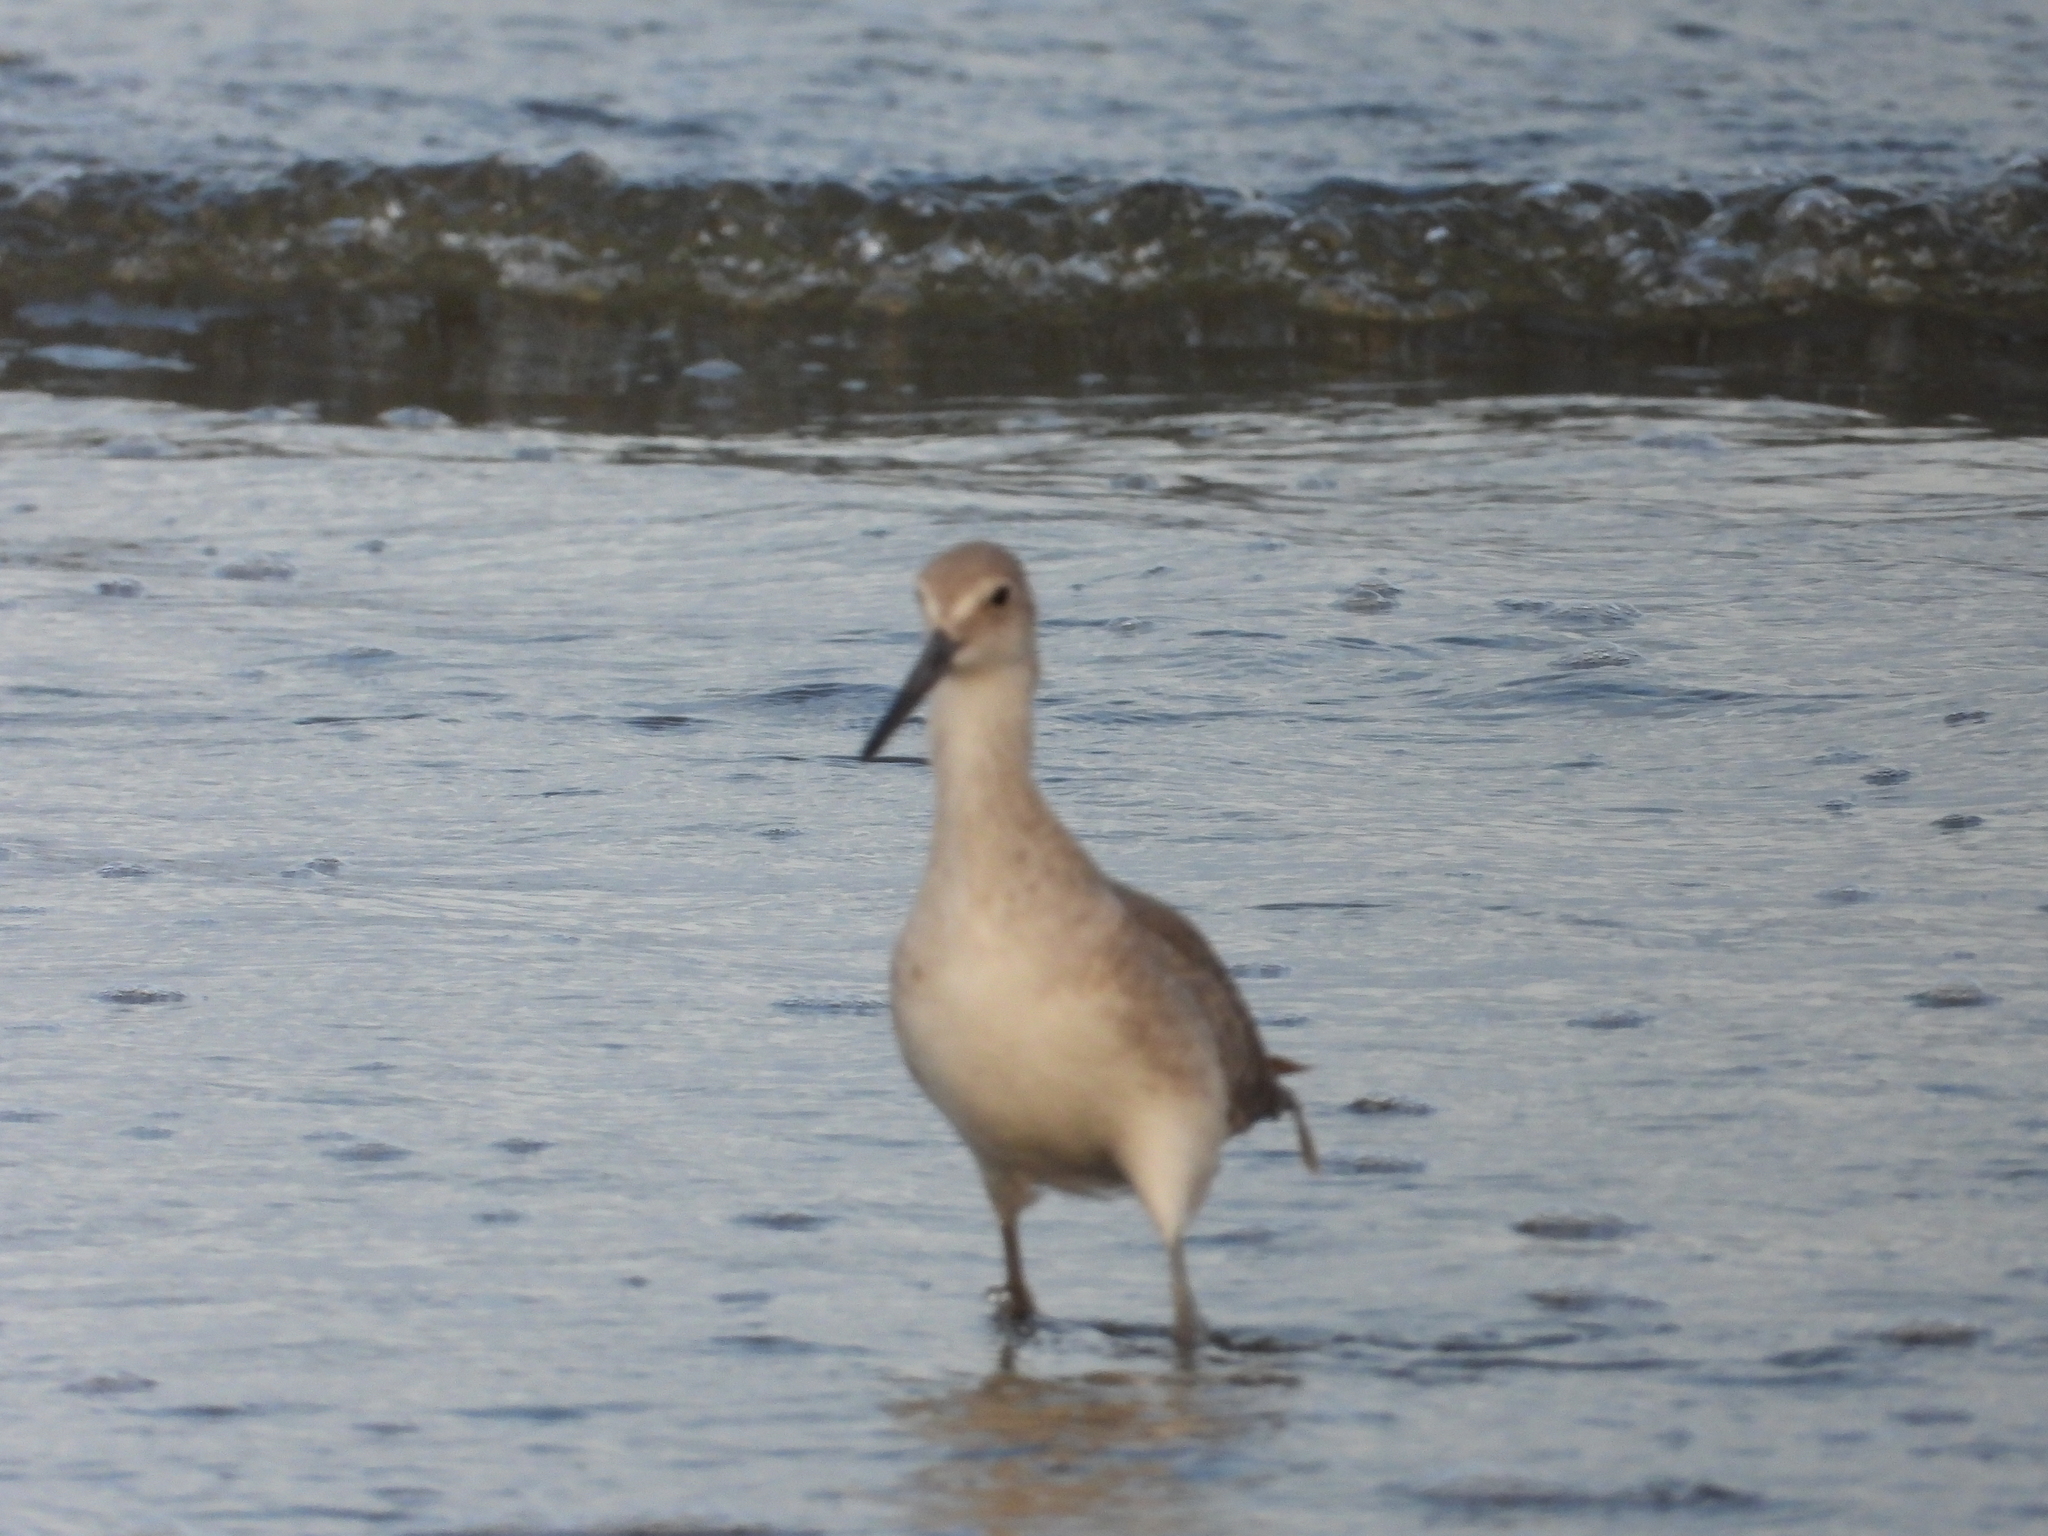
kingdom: Animalia
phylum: Chordata
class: Aves
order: Charadriiformes
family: Scolopacidae
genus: Tringa
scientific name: Tringa semipalmata
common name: Willet
